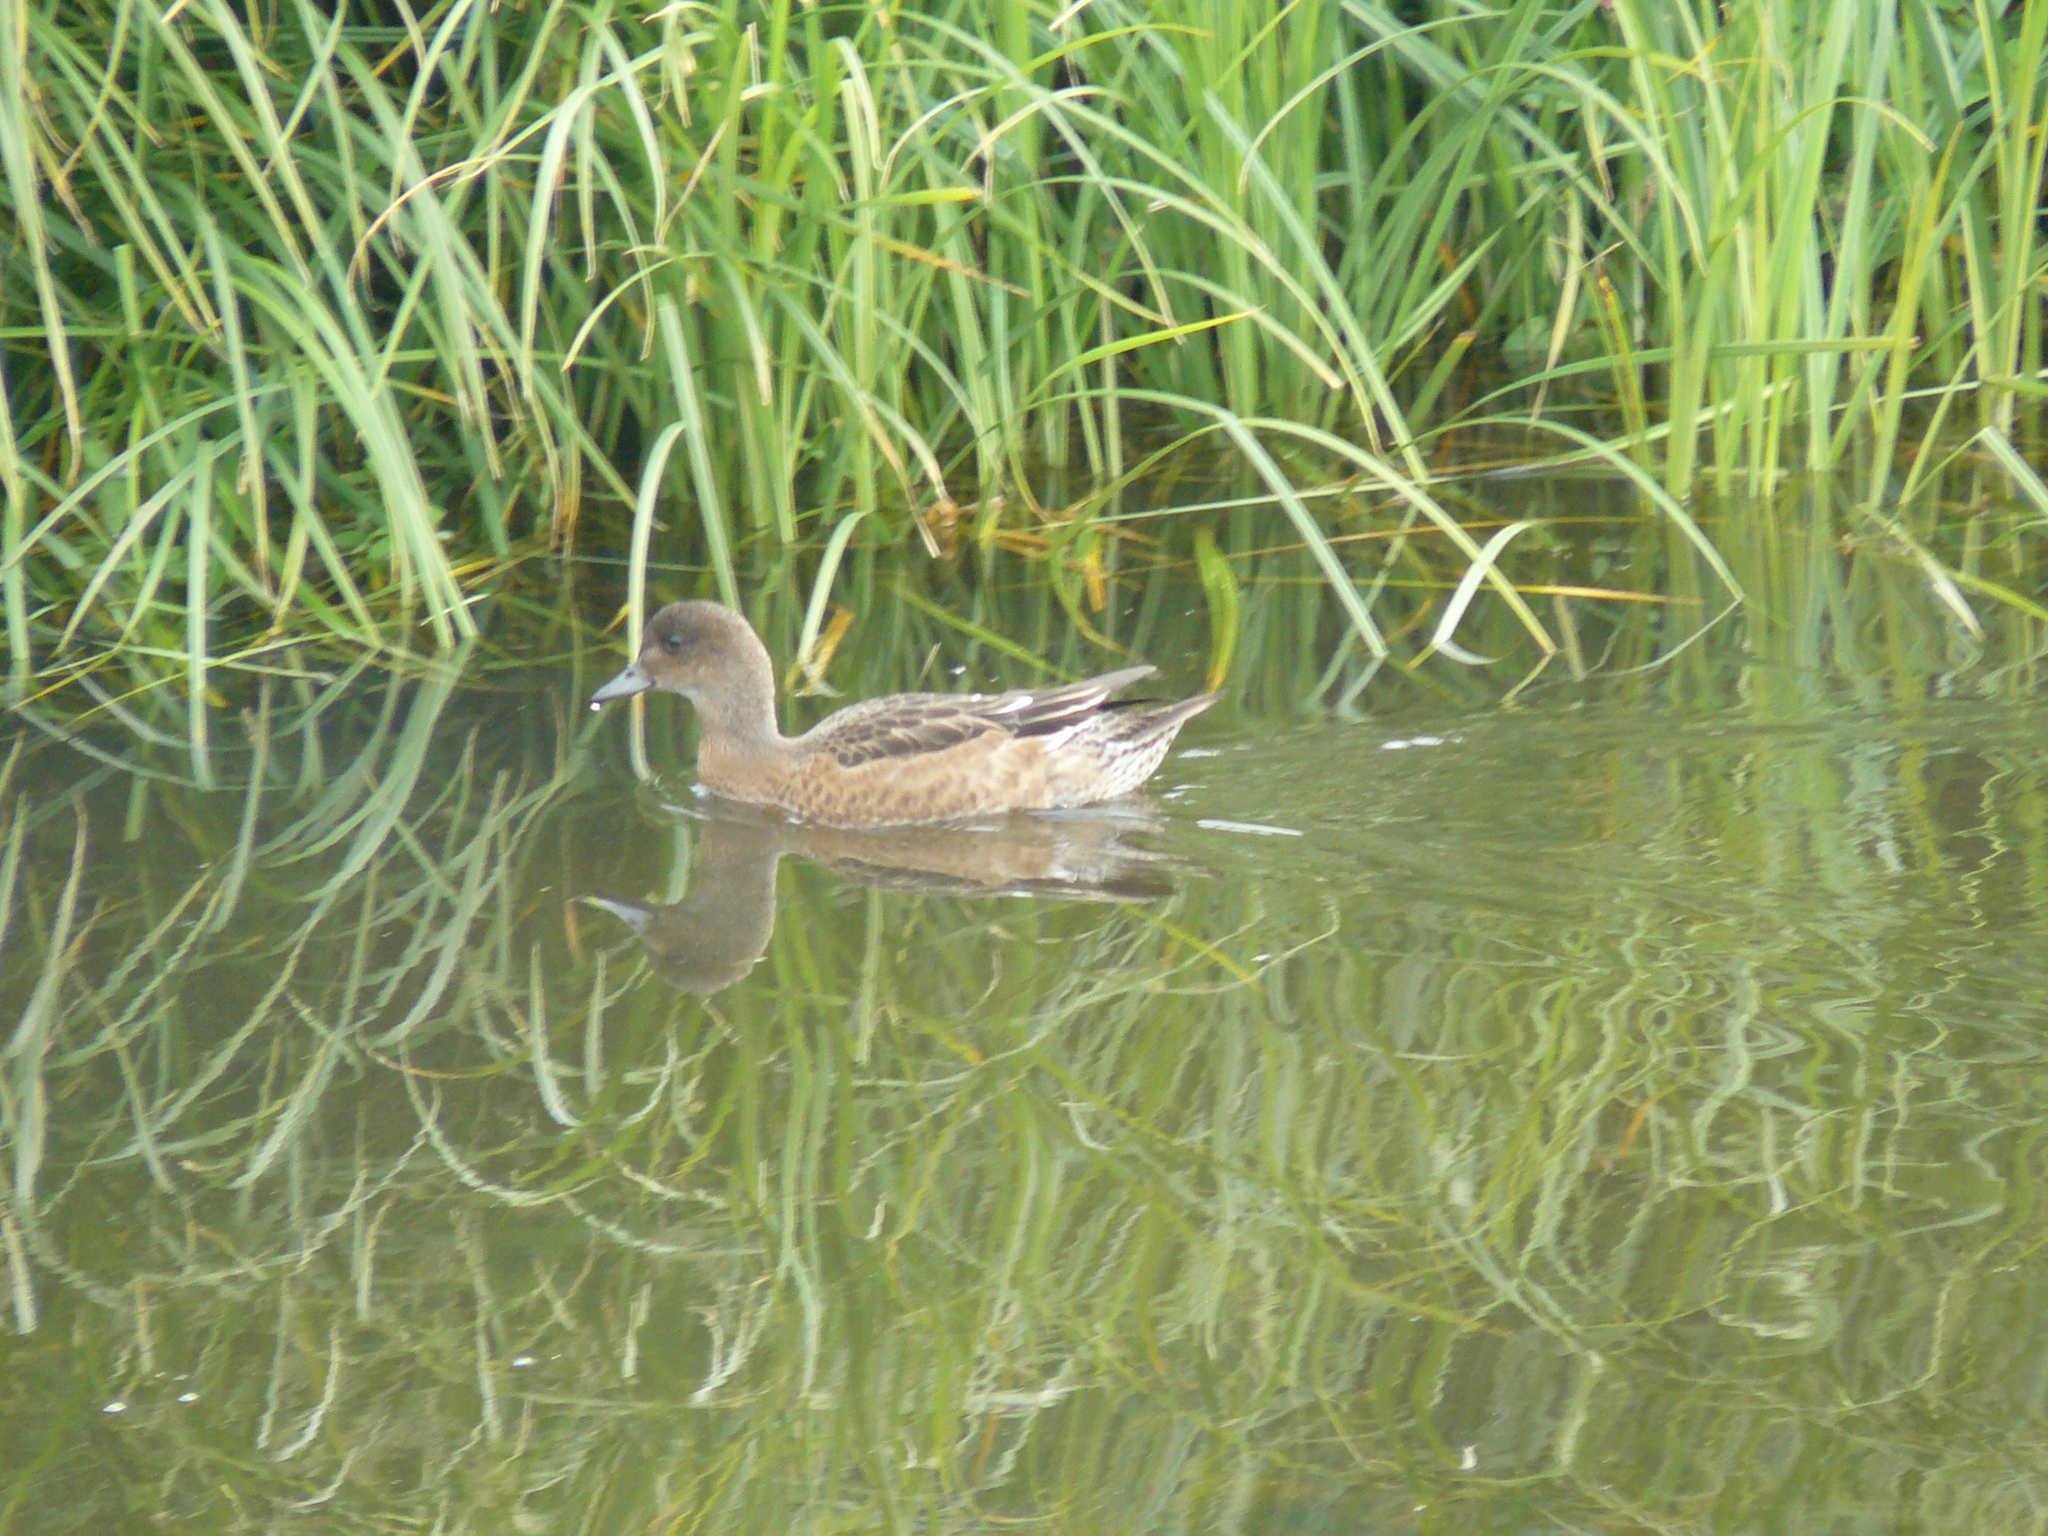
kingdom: Animalia
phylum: Chordata
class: Aves
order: Anseriformes
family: Anatidae
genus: Mareca
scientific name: Mareca penelope
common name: Eurasian wigeon
